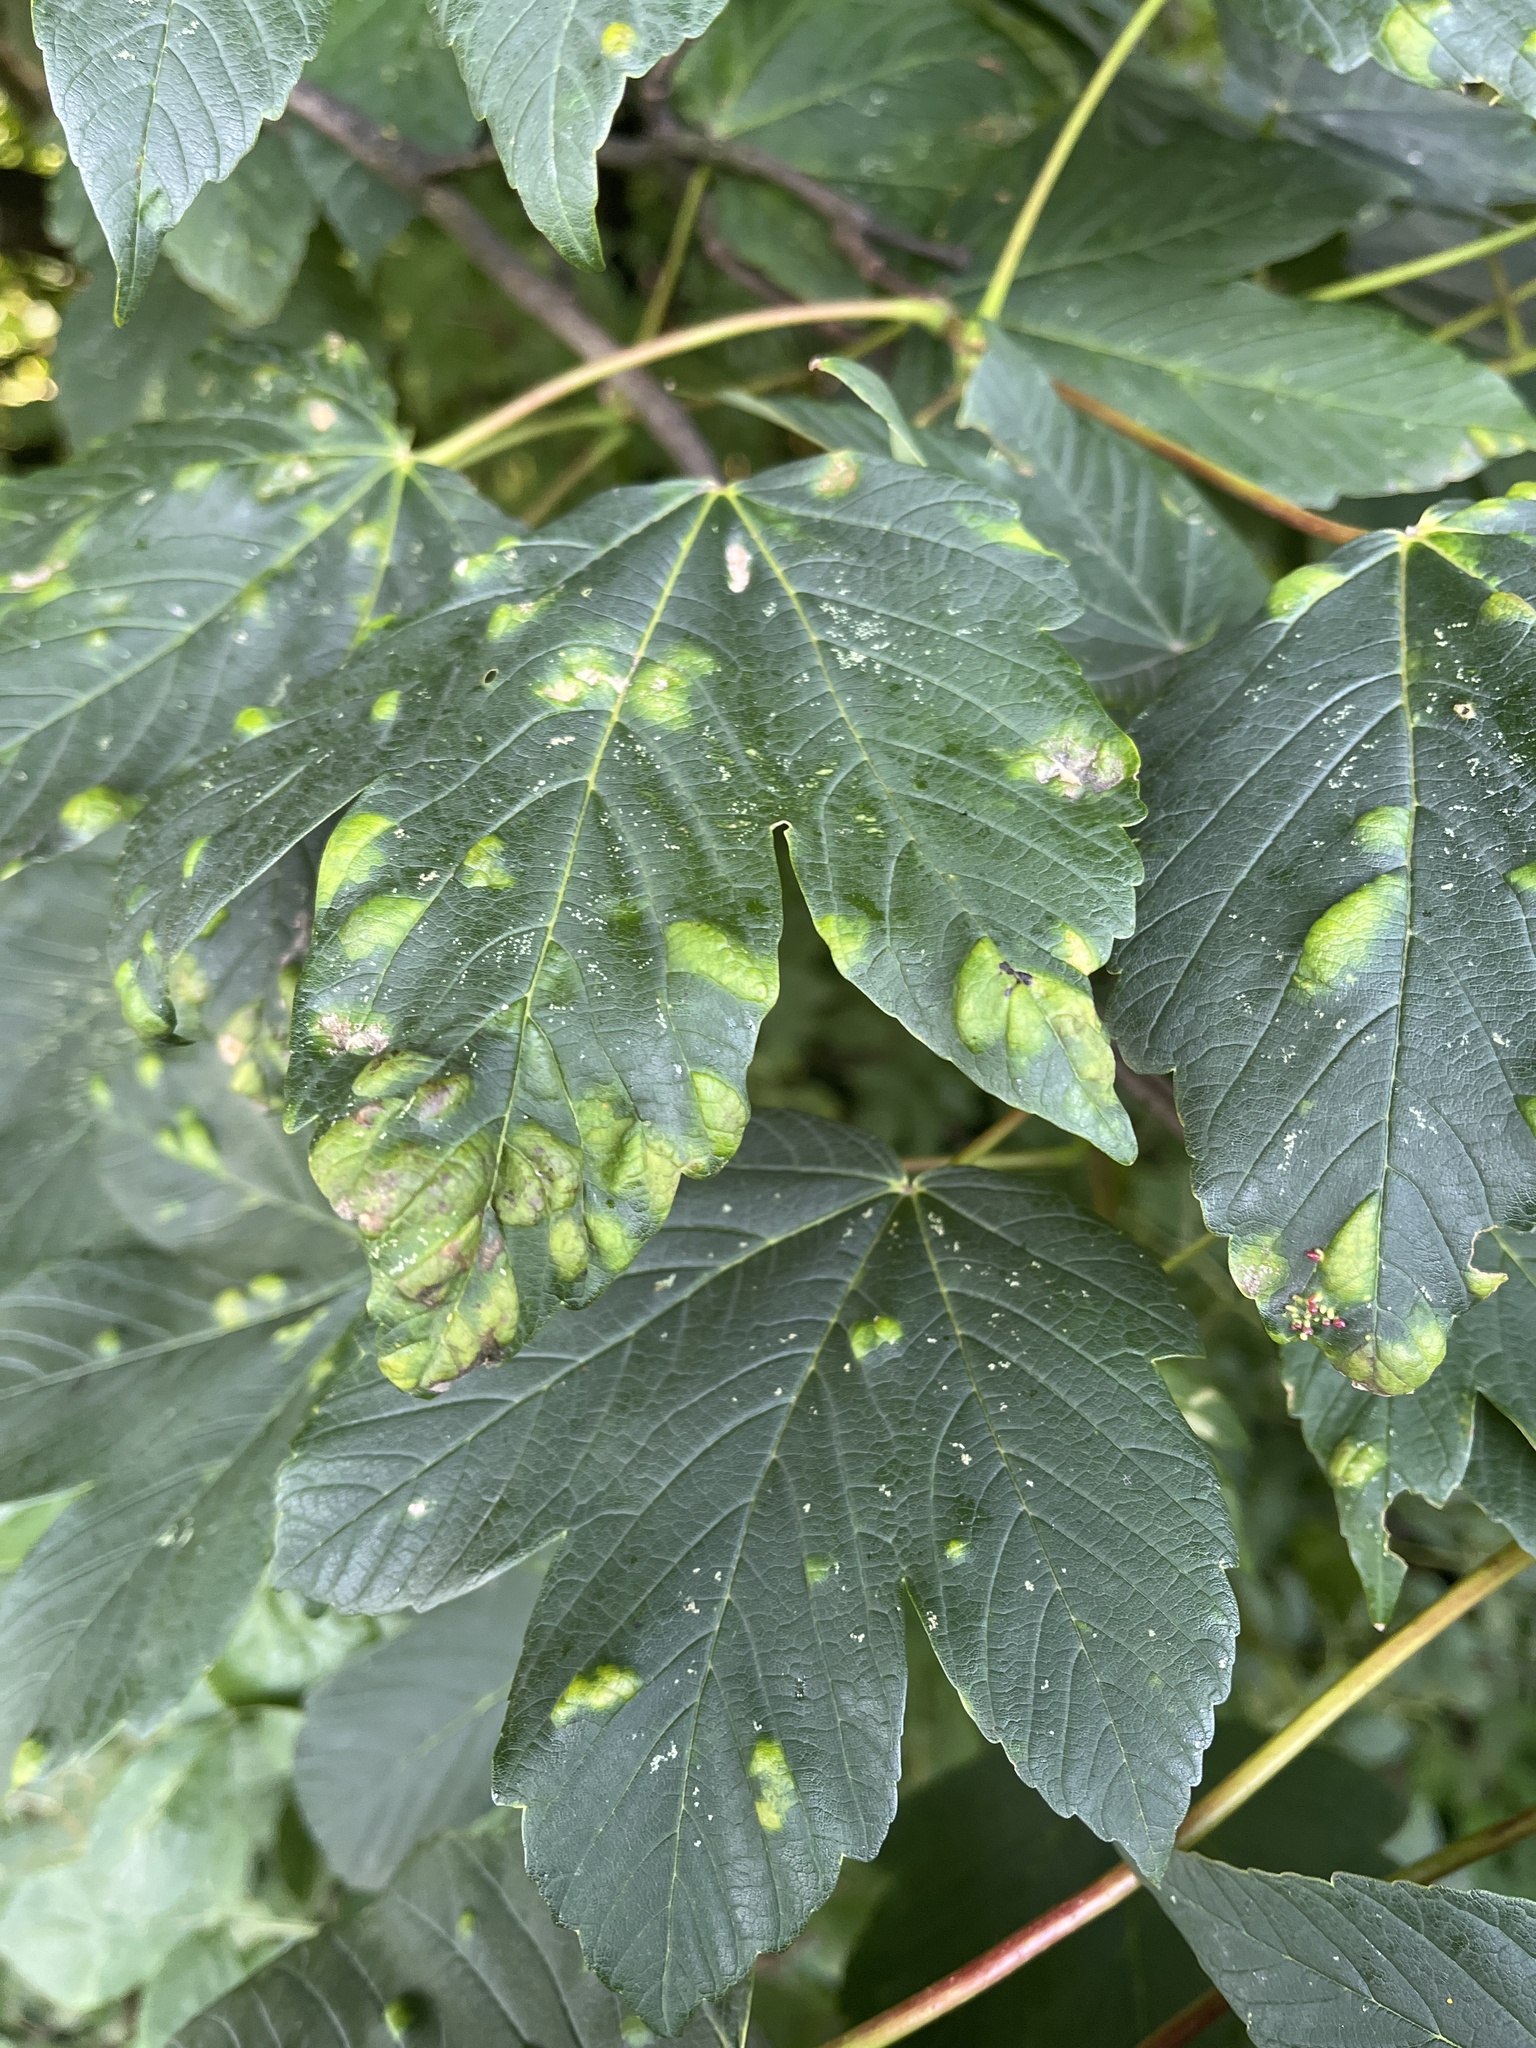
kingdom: Animalia
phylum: Arthropoda
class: Arachnida
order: Trombidiformes
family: Eriophyidae
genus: Aceria
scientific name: Aceria pseudoplatani
